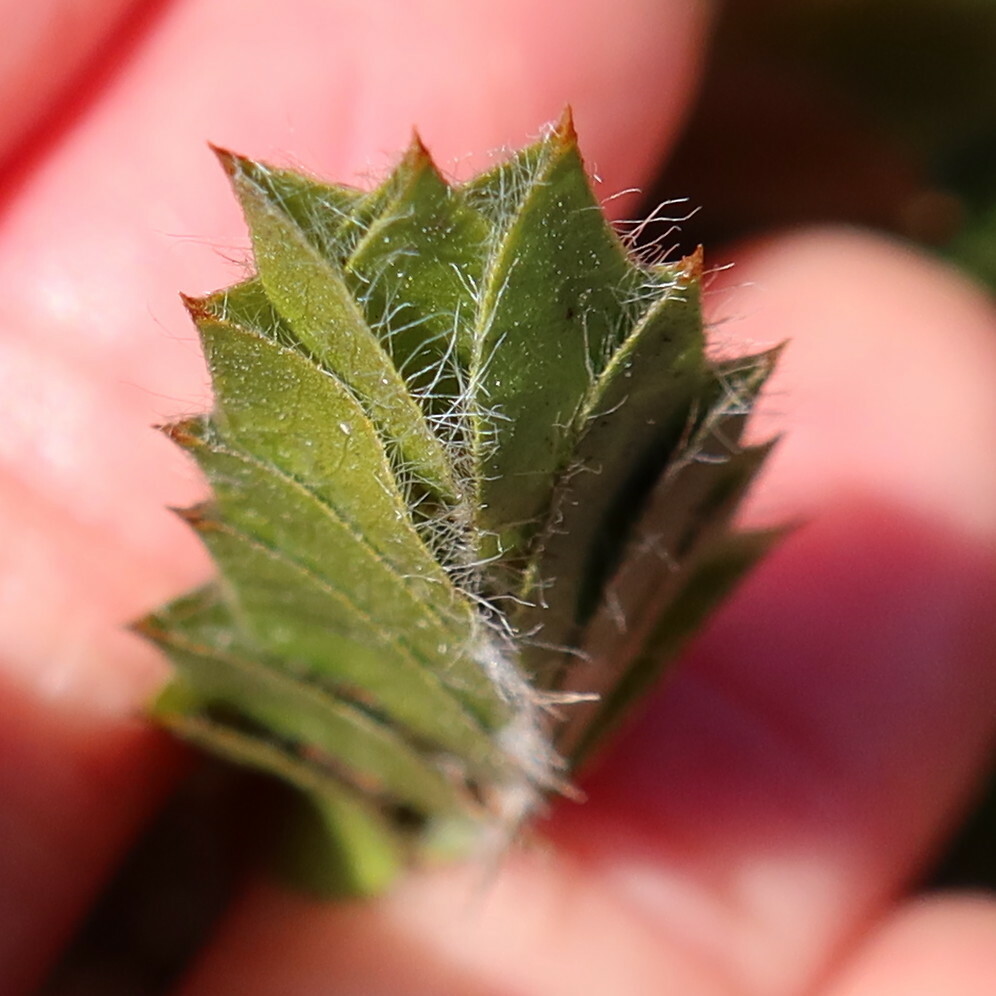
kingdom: Plantae
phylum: Tracheophyta
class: Magnoliopsida
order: Fabales
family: Fabaceae
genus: Psoralea
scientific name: Psoralea imbricata
